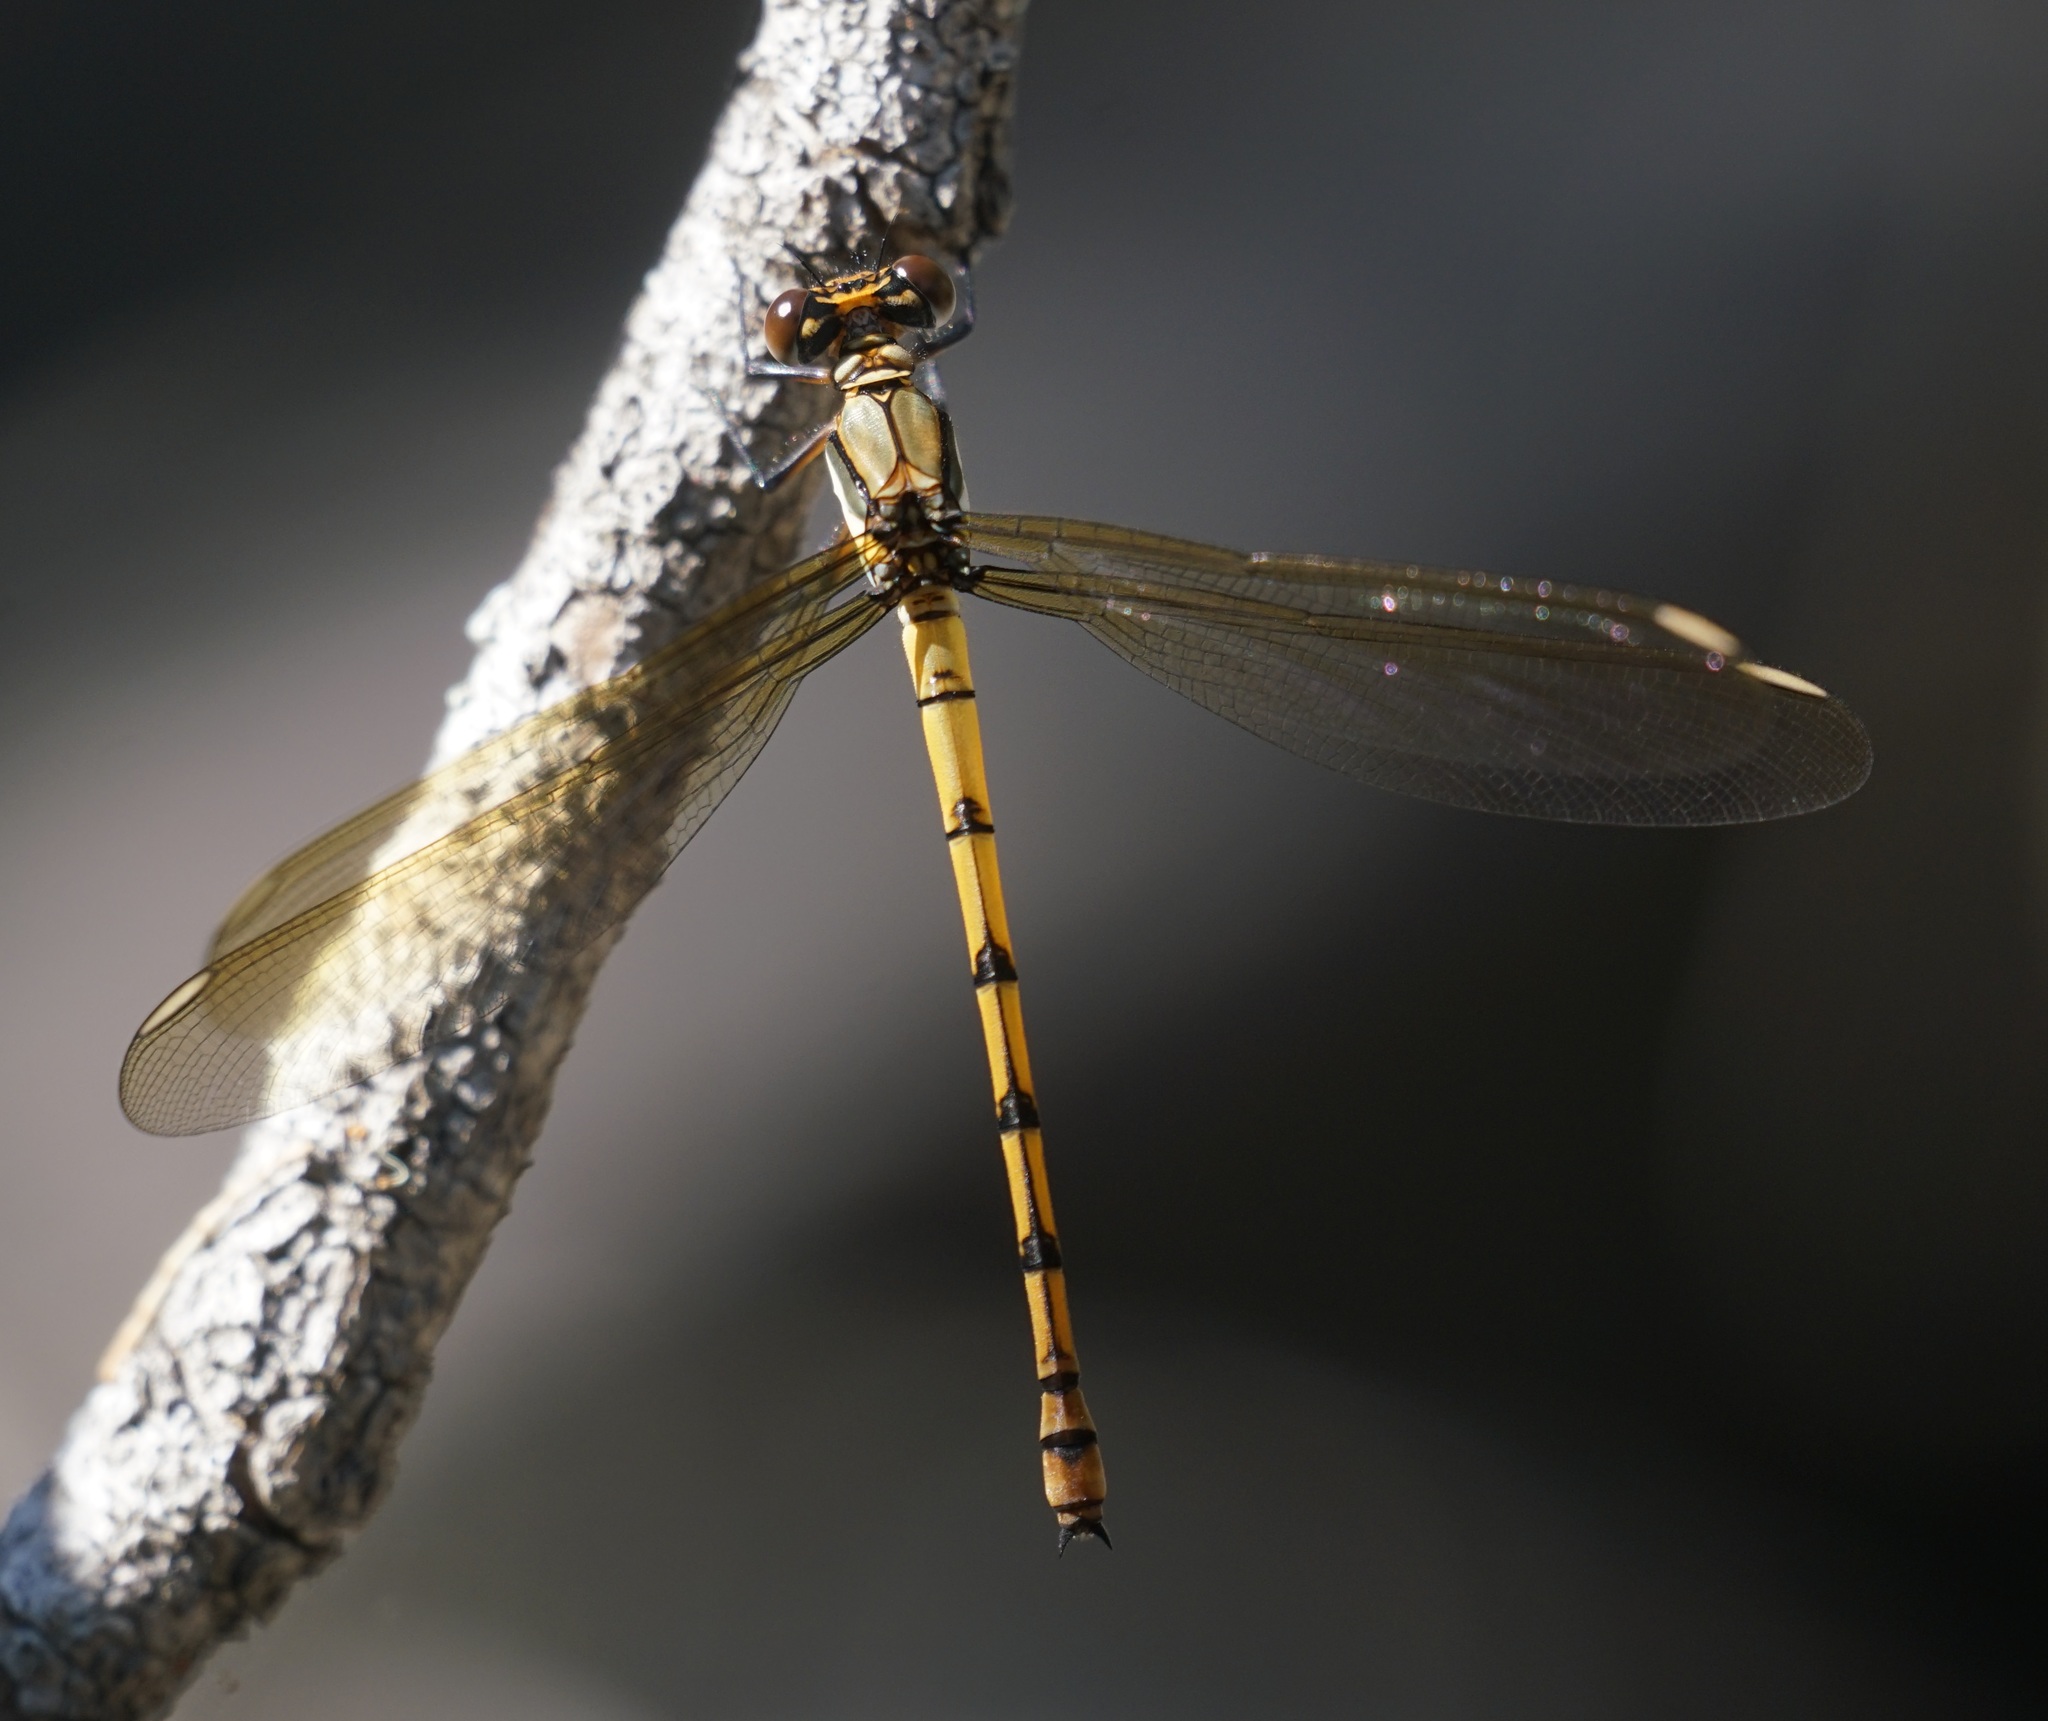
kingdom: Animalia
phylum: Arthropoda
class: Insecta
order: Odonata
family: Lestoideidae
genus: Diphlebia
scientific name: Diphlebia euphoeoides
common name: Tropical rockmaster
